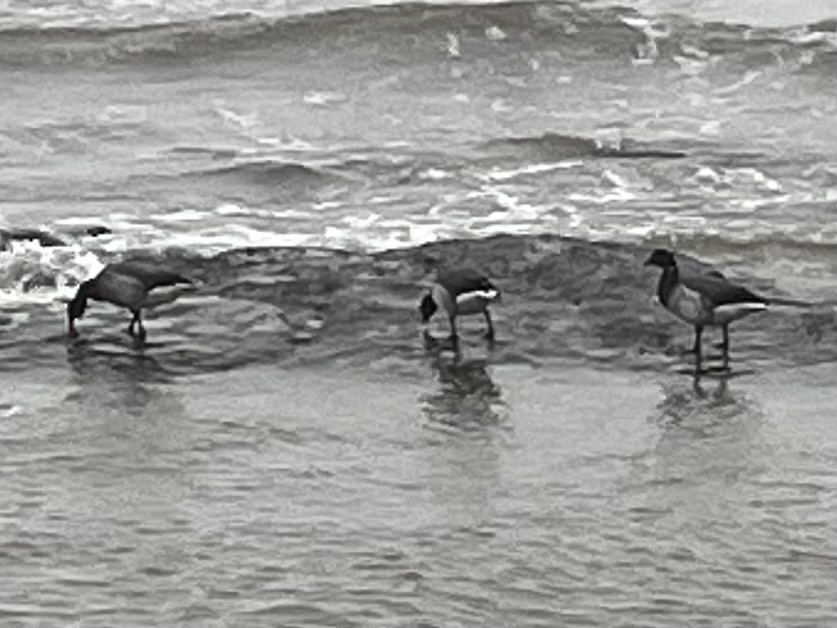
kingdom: Animalia
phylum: Chordata
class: Aves
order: Anseriformes
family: Anatidae
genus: Branta
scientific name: Branta bernicla
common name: Brant goose
